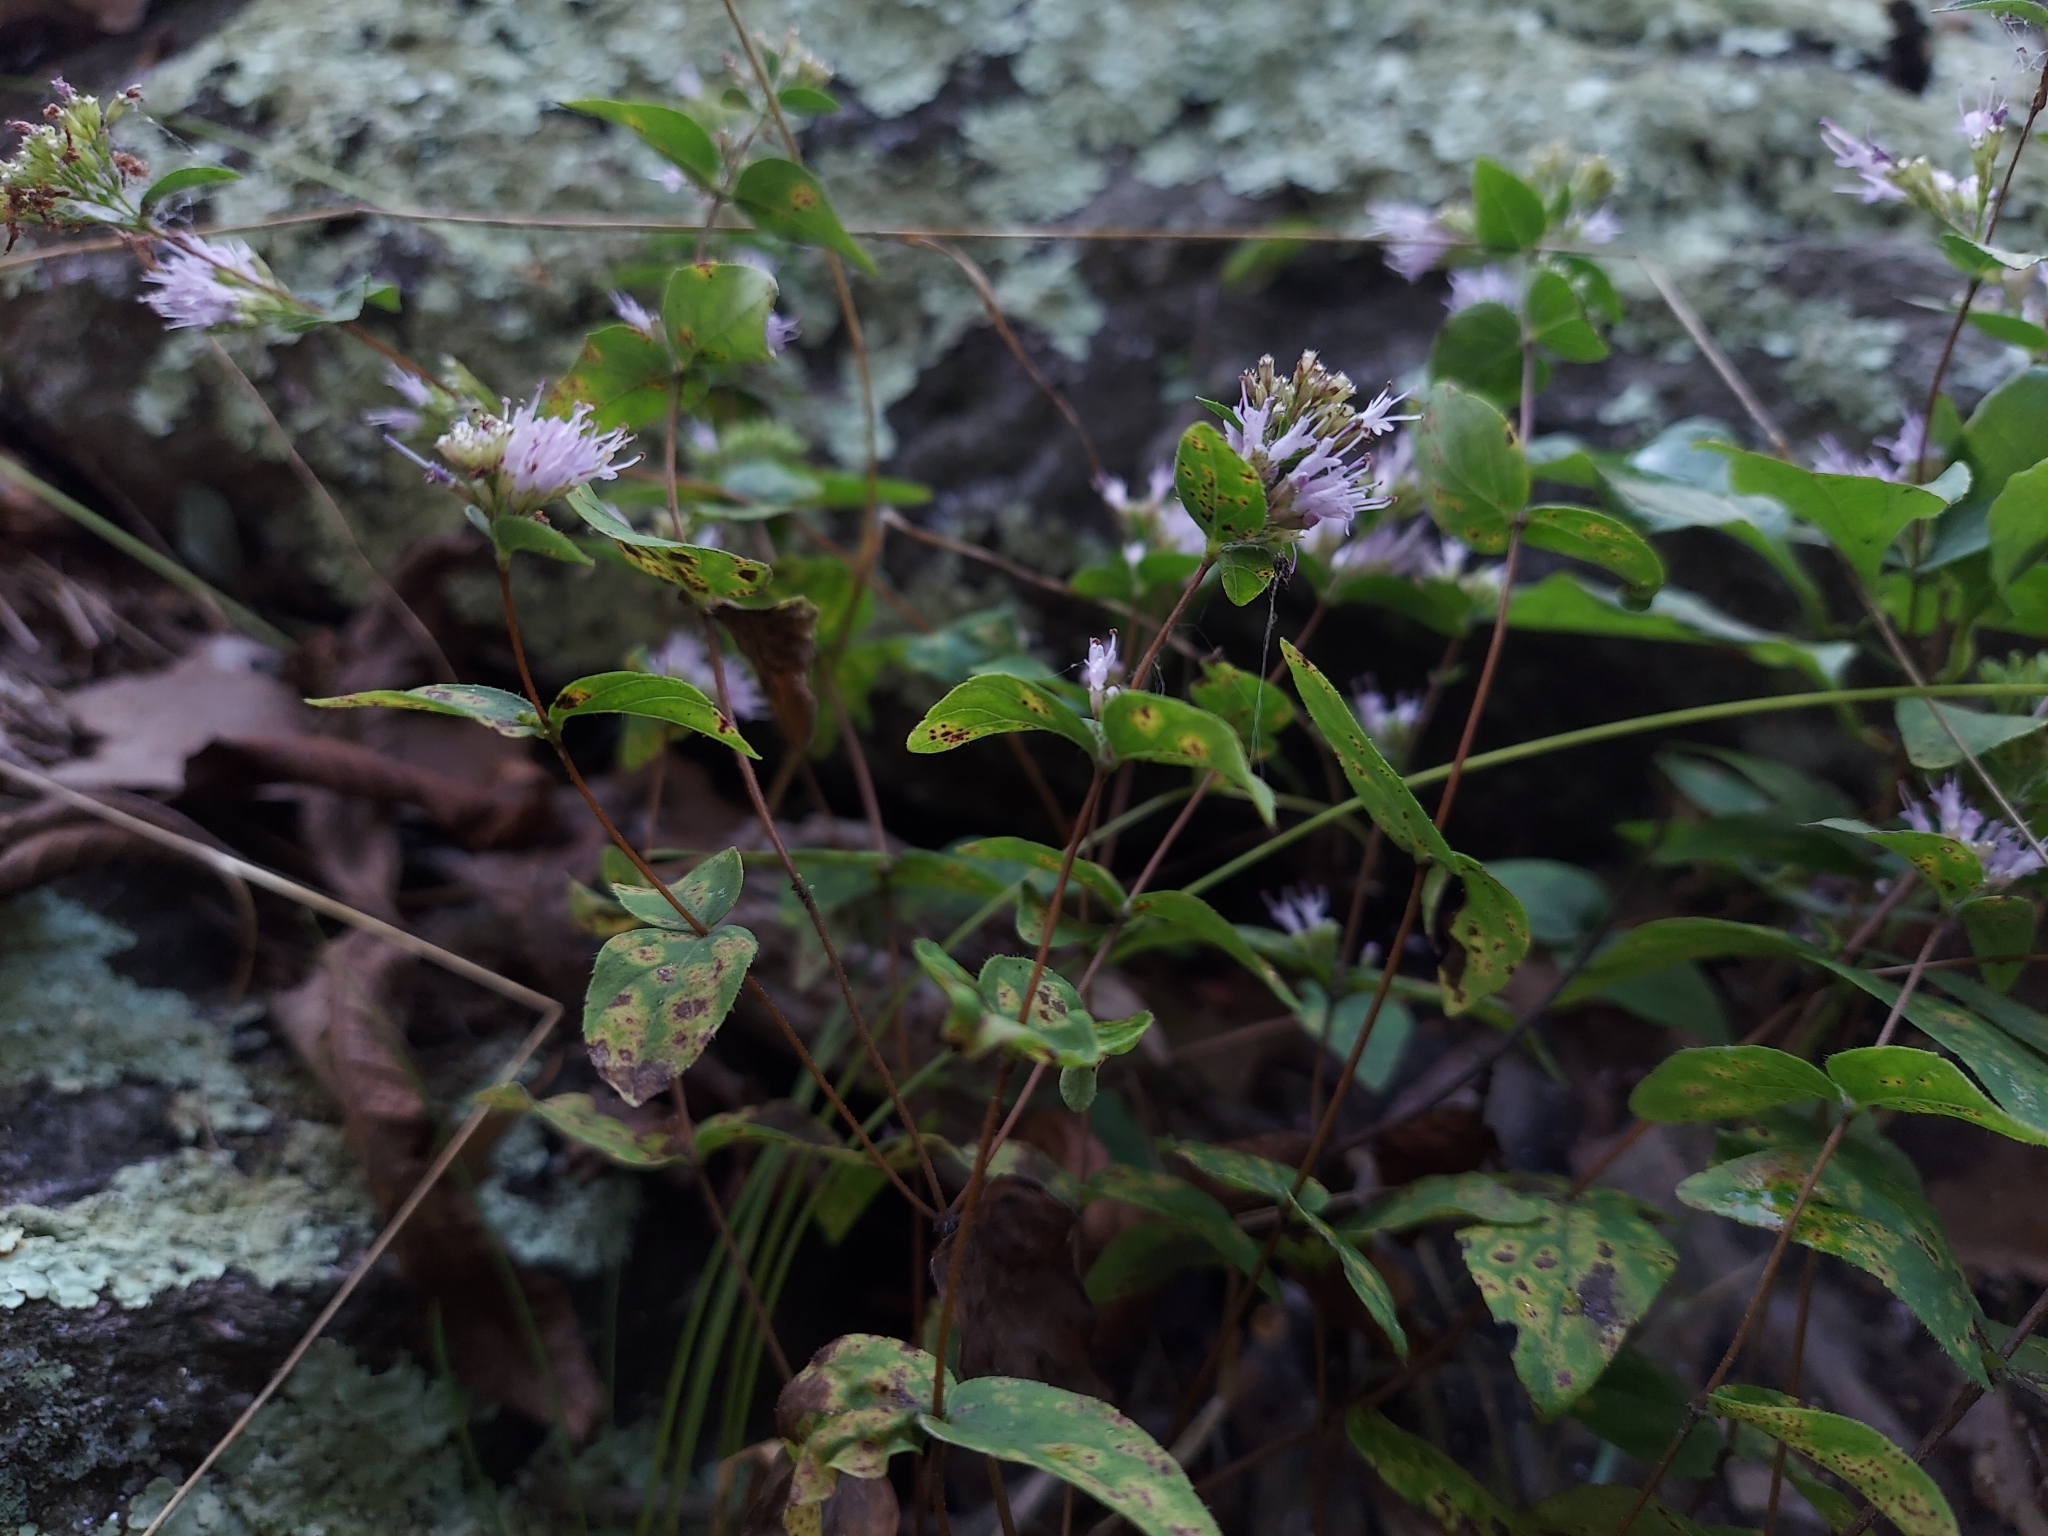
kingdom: Plantae
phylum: Tracheophyta
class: Magnoliopsida
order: Lamiales
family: Lamiaceae
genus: Cunila
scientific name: Cunila origanoides
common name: American dittany
